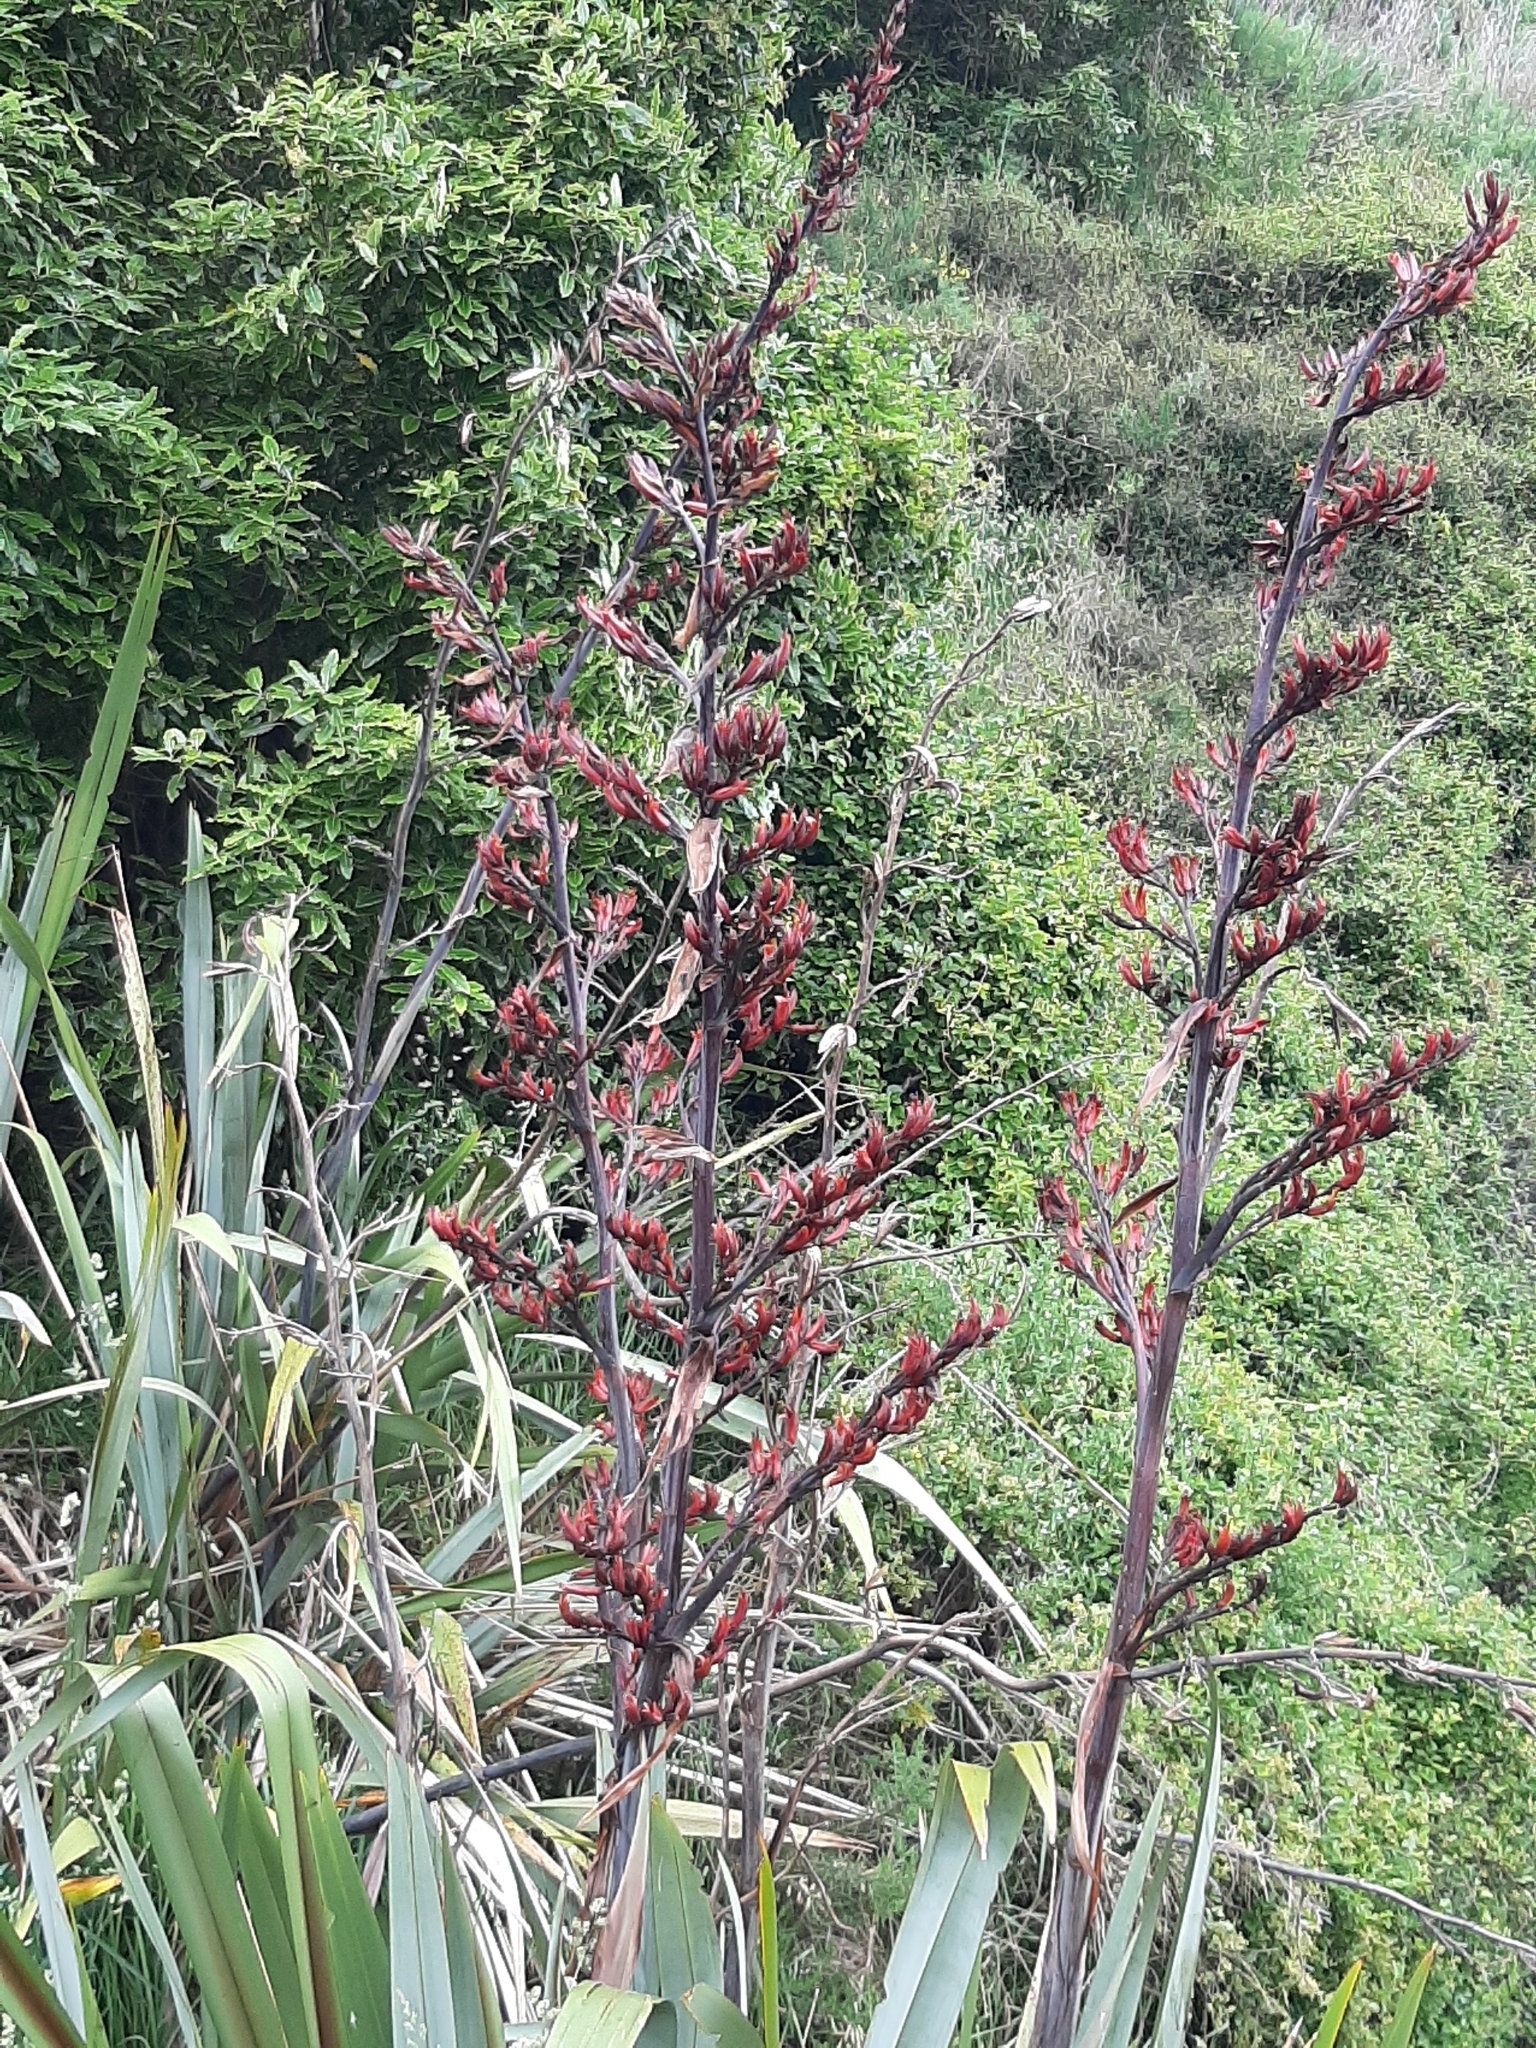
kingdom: Plantae
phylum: Tracheophyta
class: Liliopsida
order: Asparagales
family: Asphodelaceae
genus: Phormium
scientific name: Phormium tenax
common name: New zealand flax
